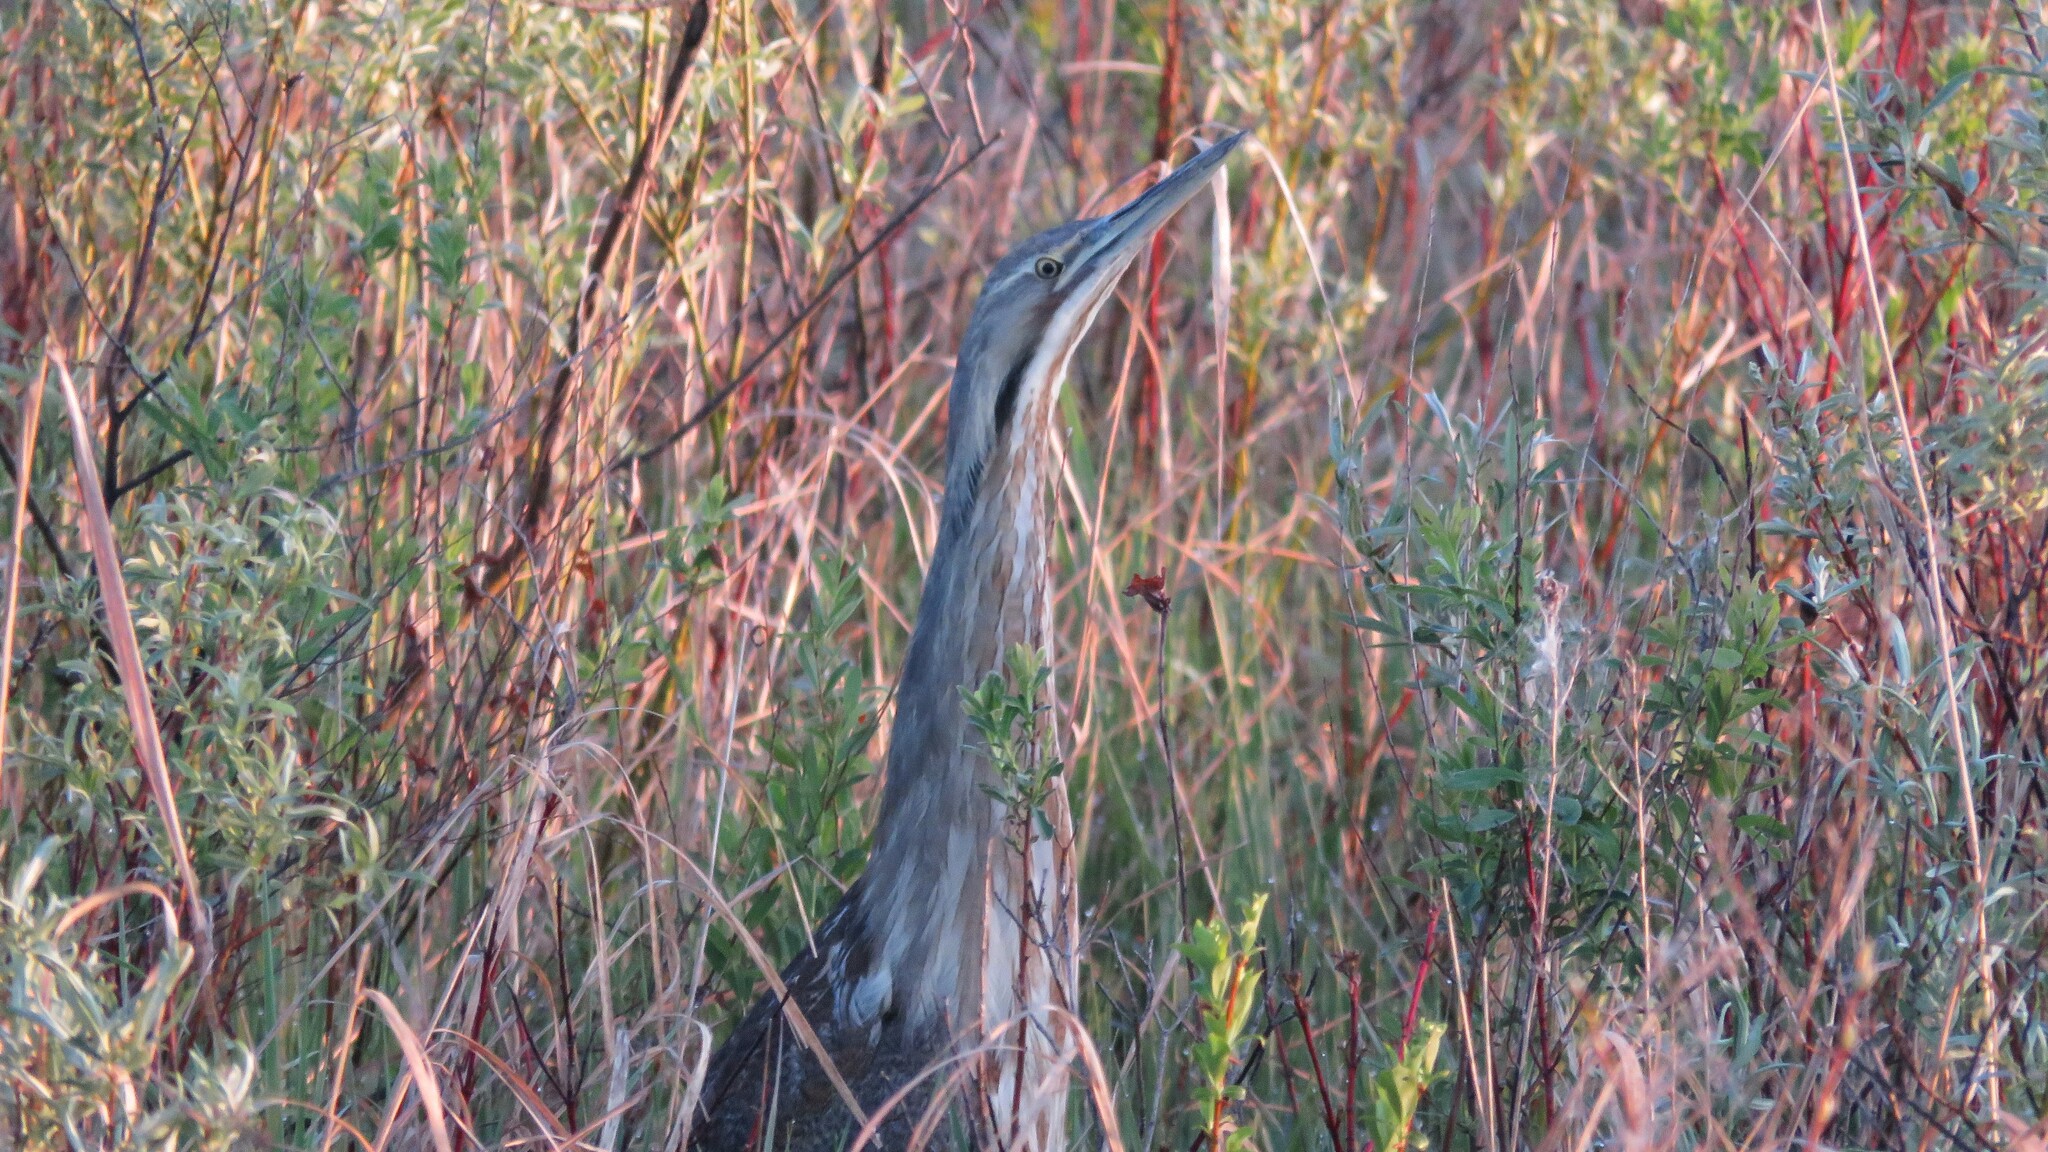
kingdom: Animalia
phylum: Chordata
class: Aves
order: Pelecaniformes
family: Ardeidae
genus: Botaurus
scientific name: Botaurus lentiginosus
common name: American bittern
